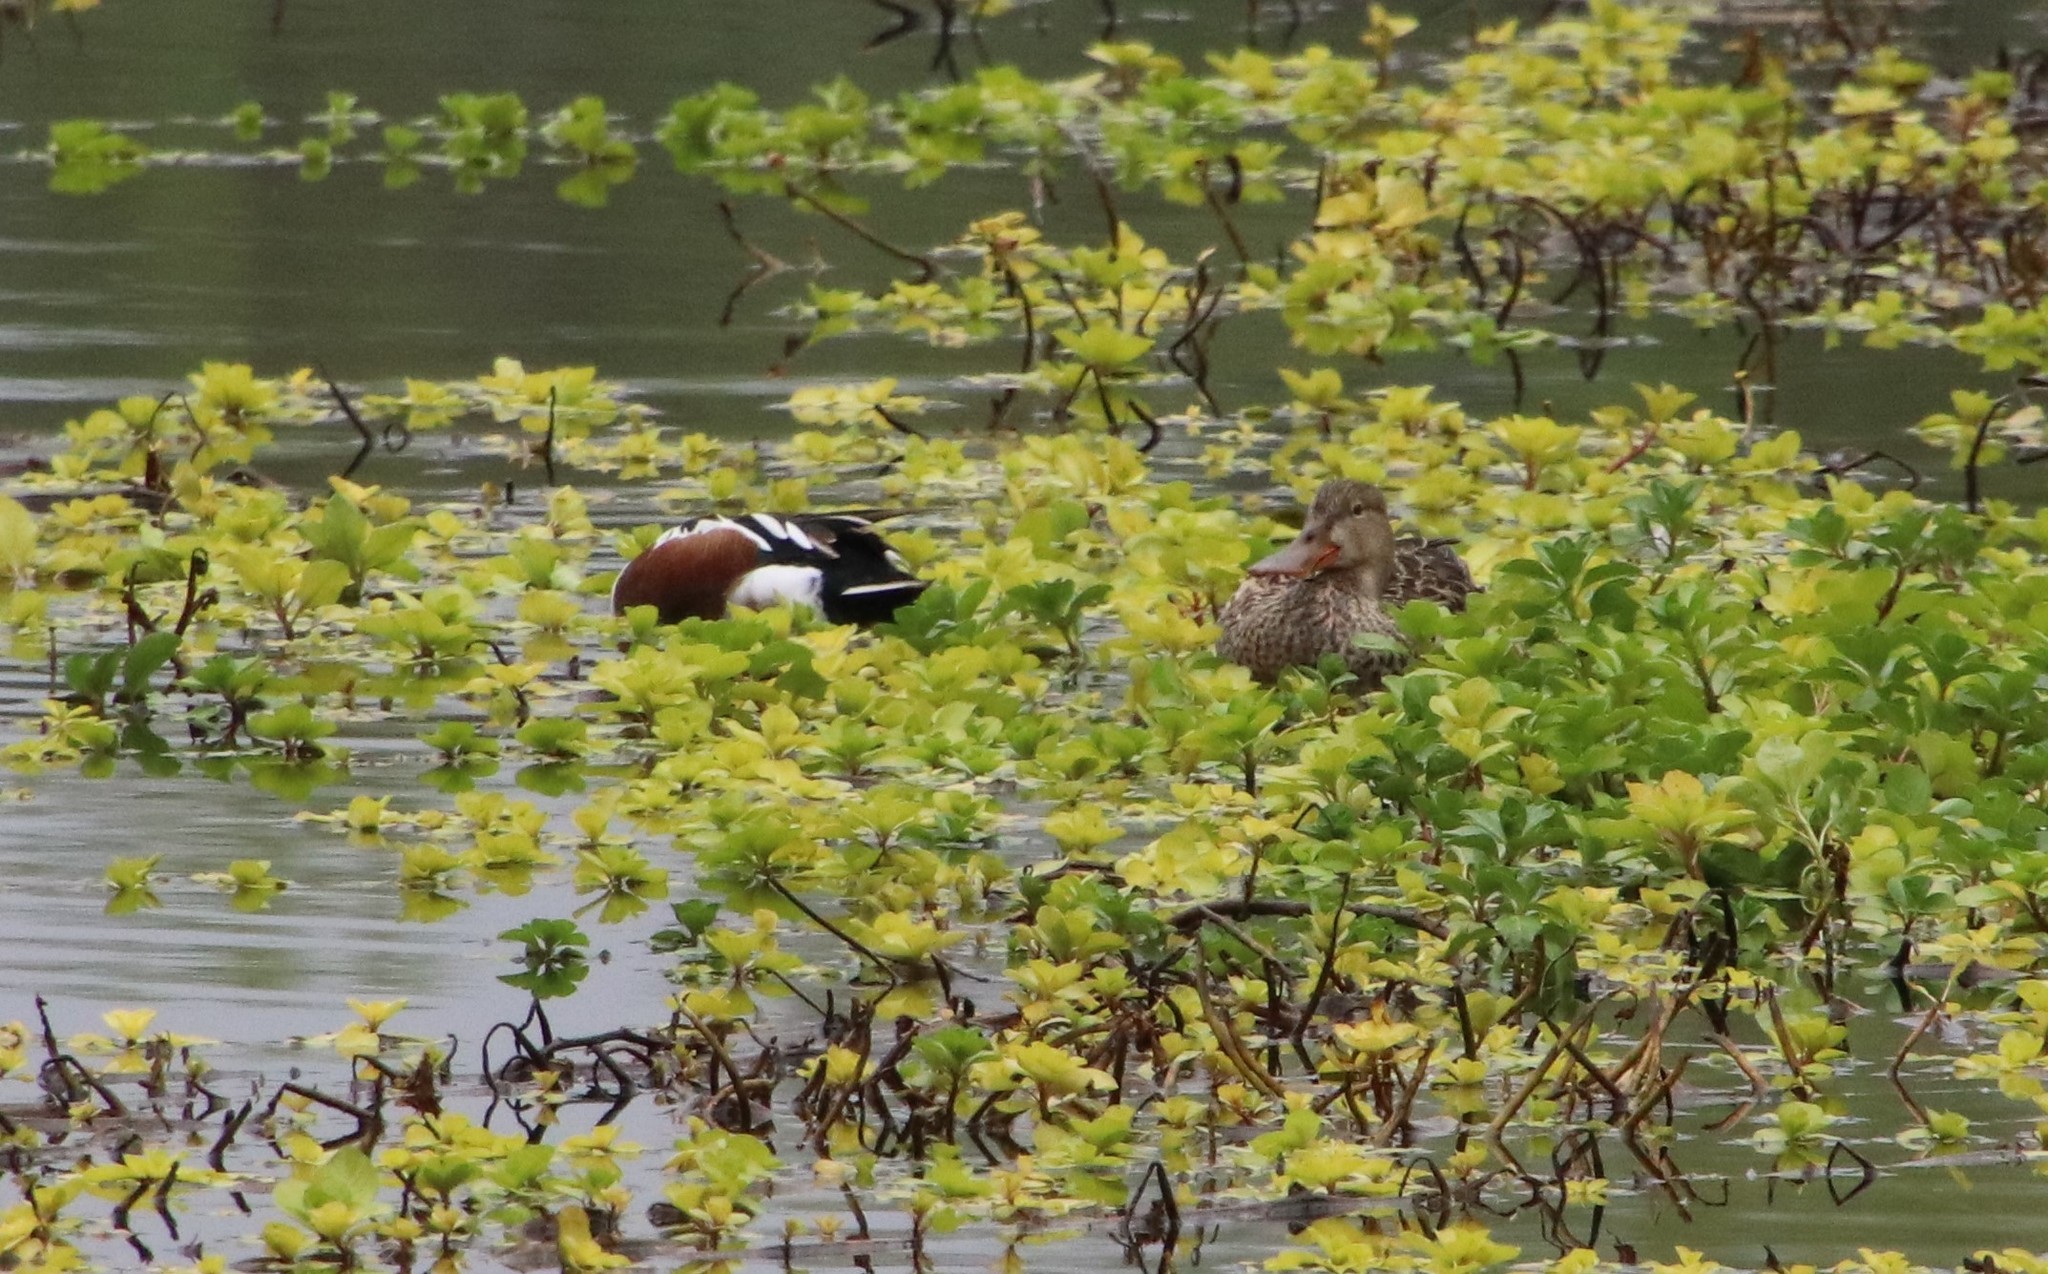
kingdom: Animalia
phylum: Chordata
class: Aves
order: Anseriformes
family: Anatidae
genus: Spatula
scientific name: Spatula clypeata
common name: Northern shoveler
